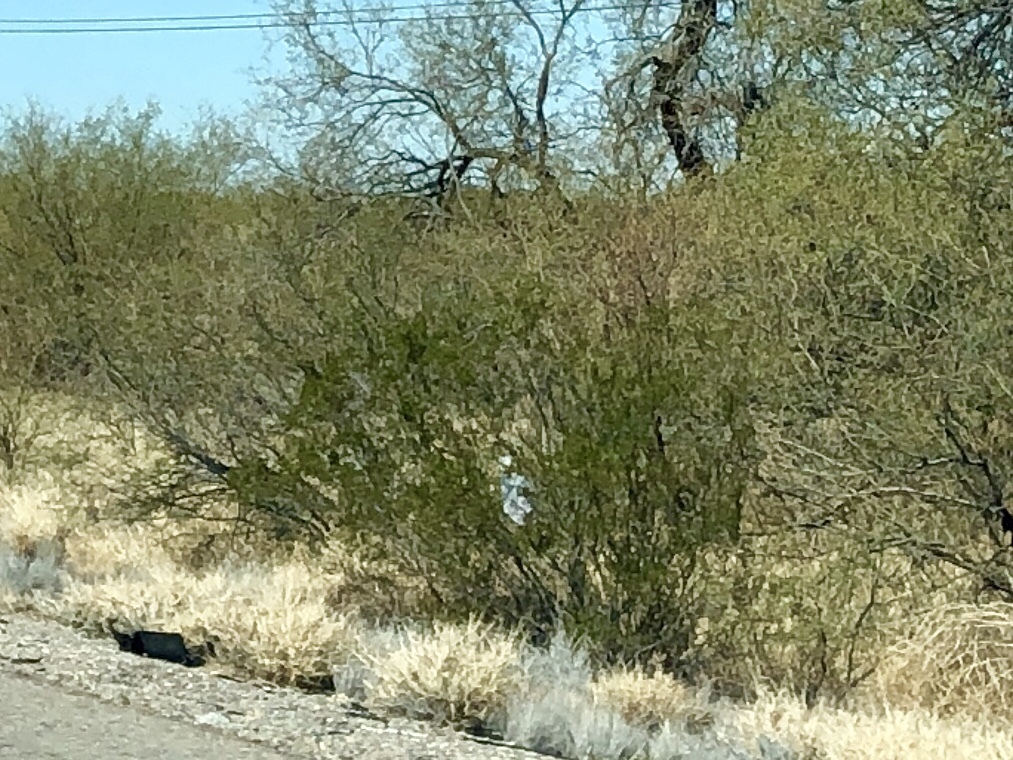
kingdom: Plantae
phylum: Tracheophyta
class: Magnoliopsida
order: Zygophyllales
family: Zygophyllaceae
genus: Larrea
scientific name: Larrea tridentata
